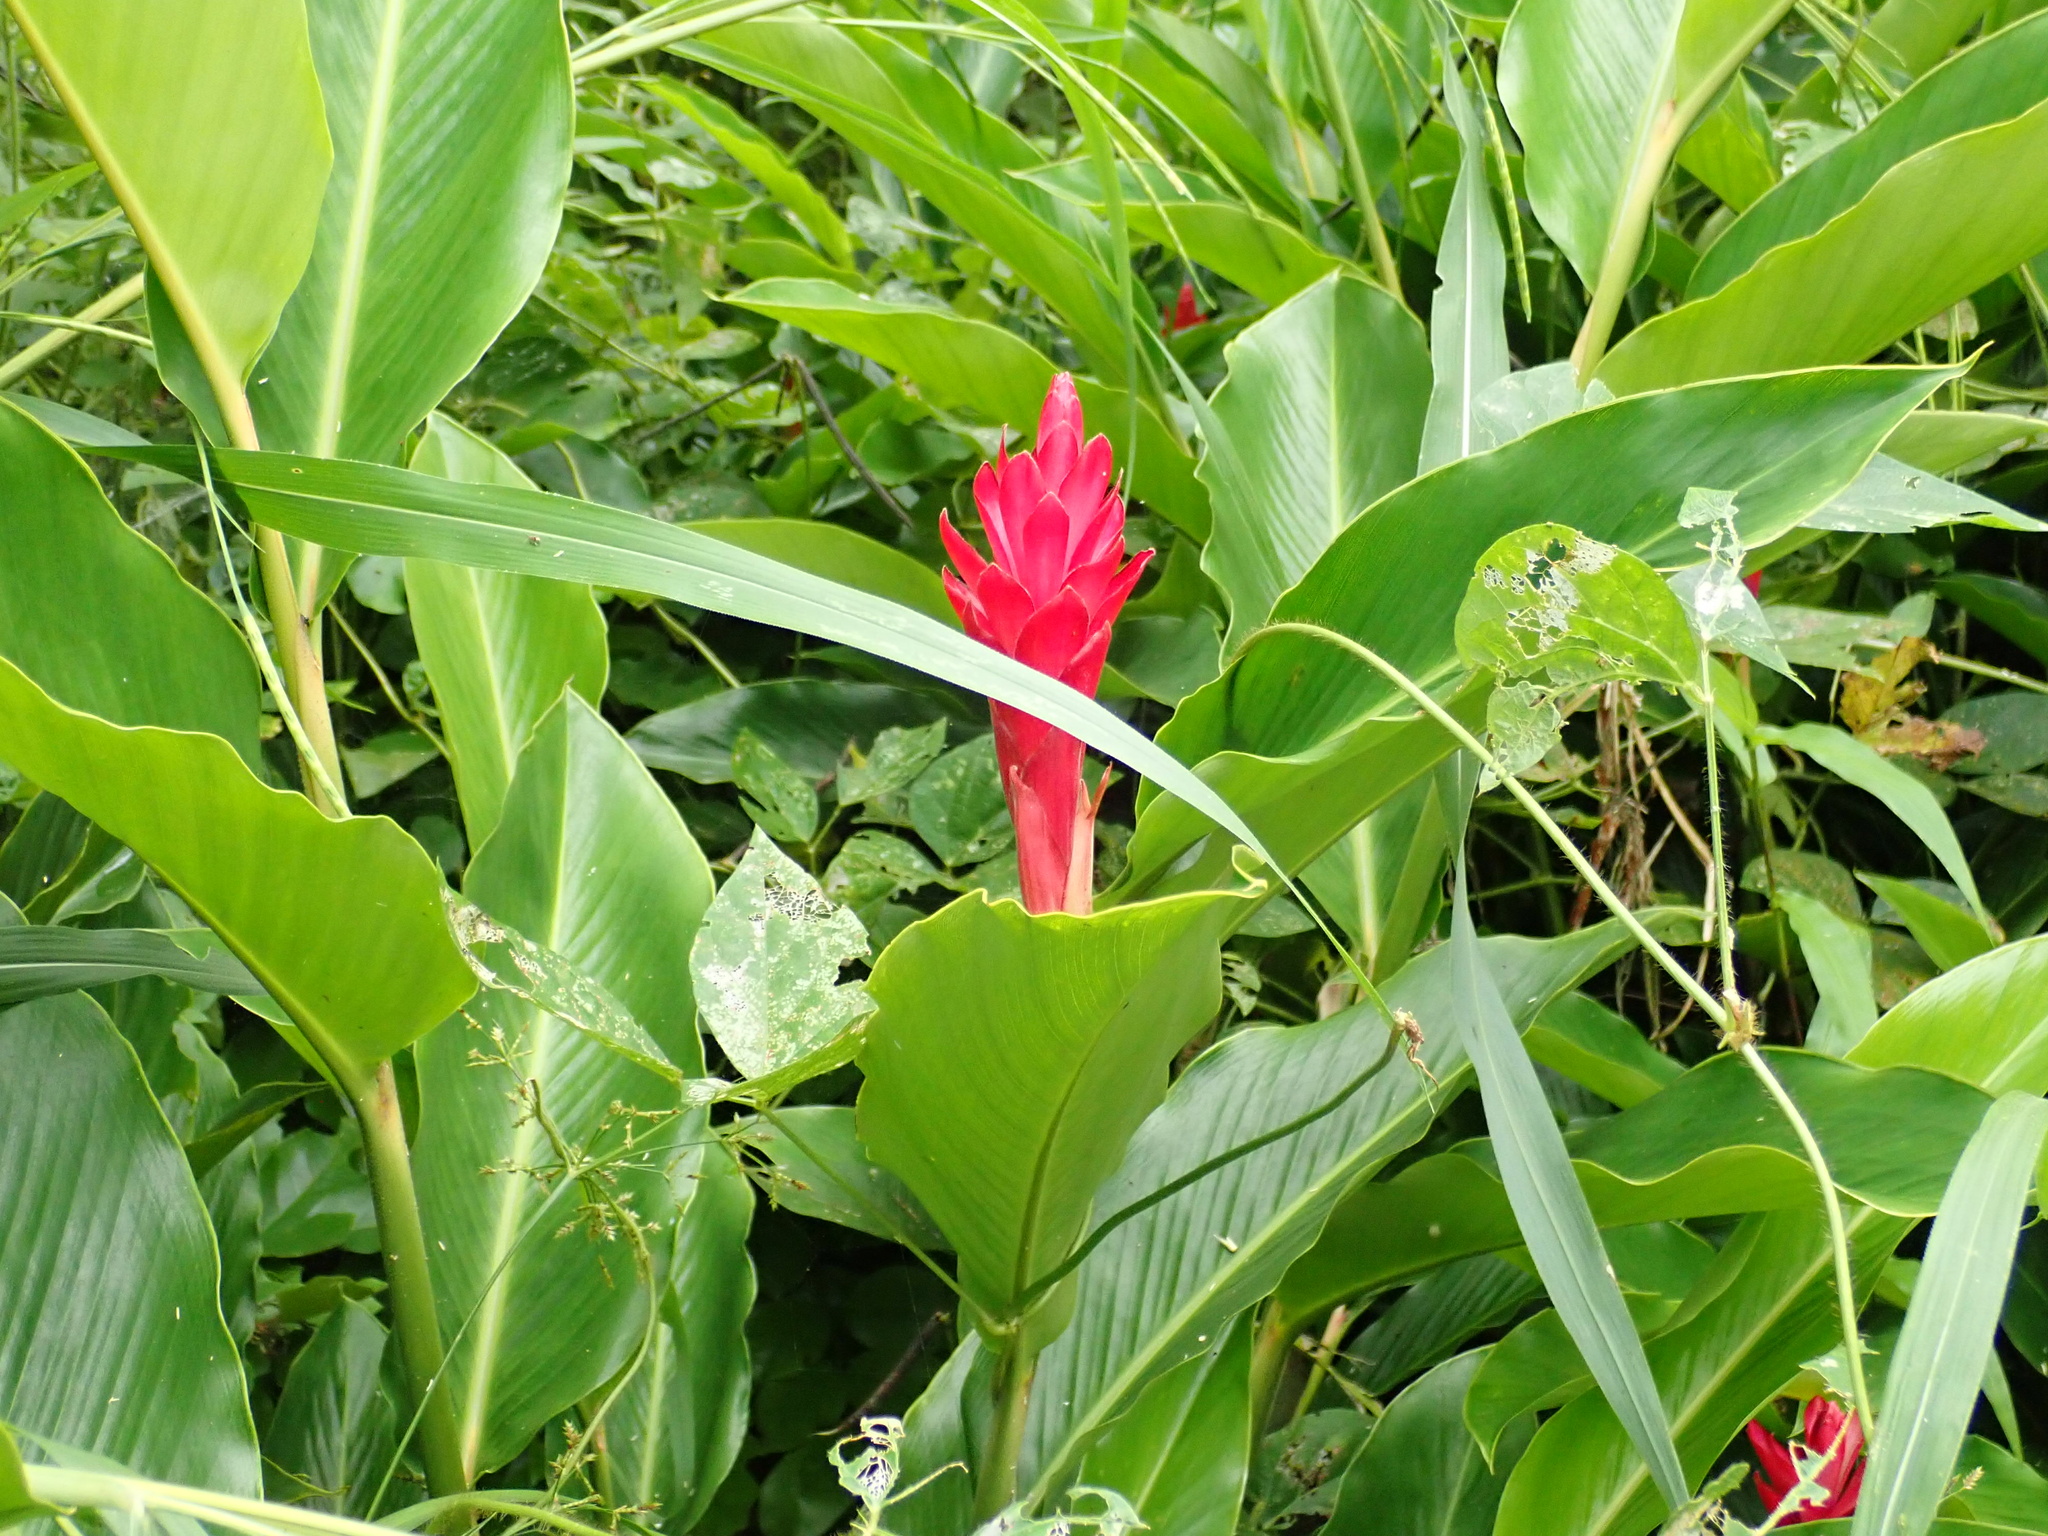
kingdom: Plantae
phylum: Tracheophyta
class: Liliopsida
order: Zingiberales
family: Zingiberaceae
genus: Alpinia
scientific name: Alpinia purpurata
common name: Red ginger
